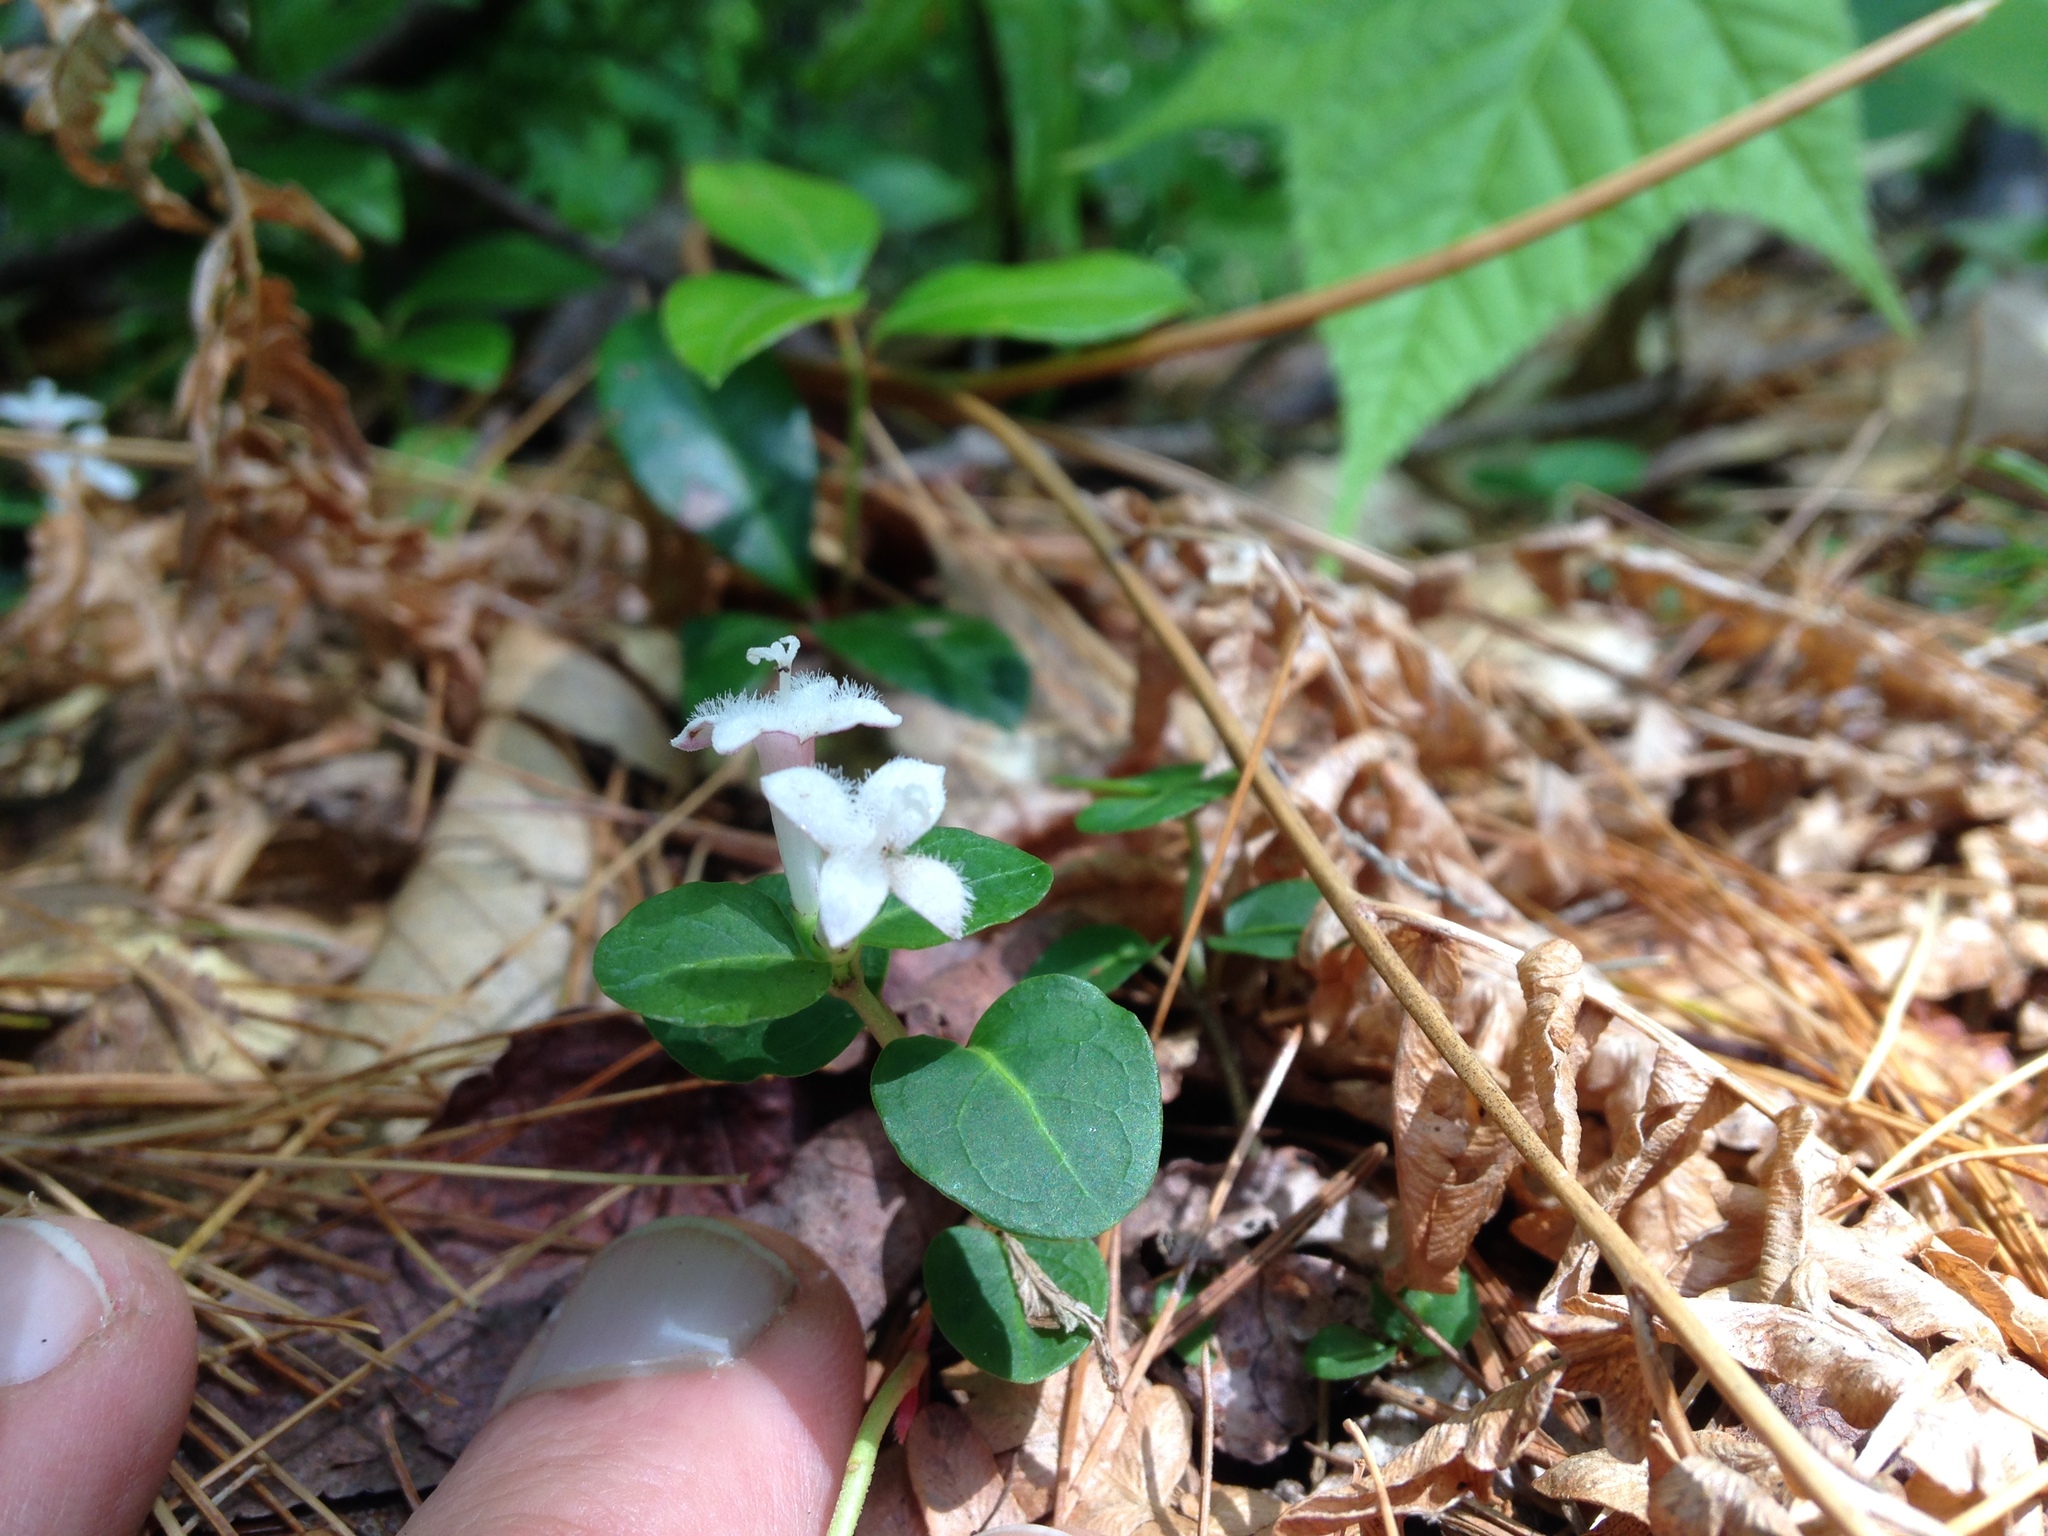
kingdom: Plantae
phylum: Tracheophyta
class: Magnoliopsida
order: Gentianales
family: Rubiaceae
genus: Mitchella
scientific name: Mitchella repens
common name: Partridge-berry
